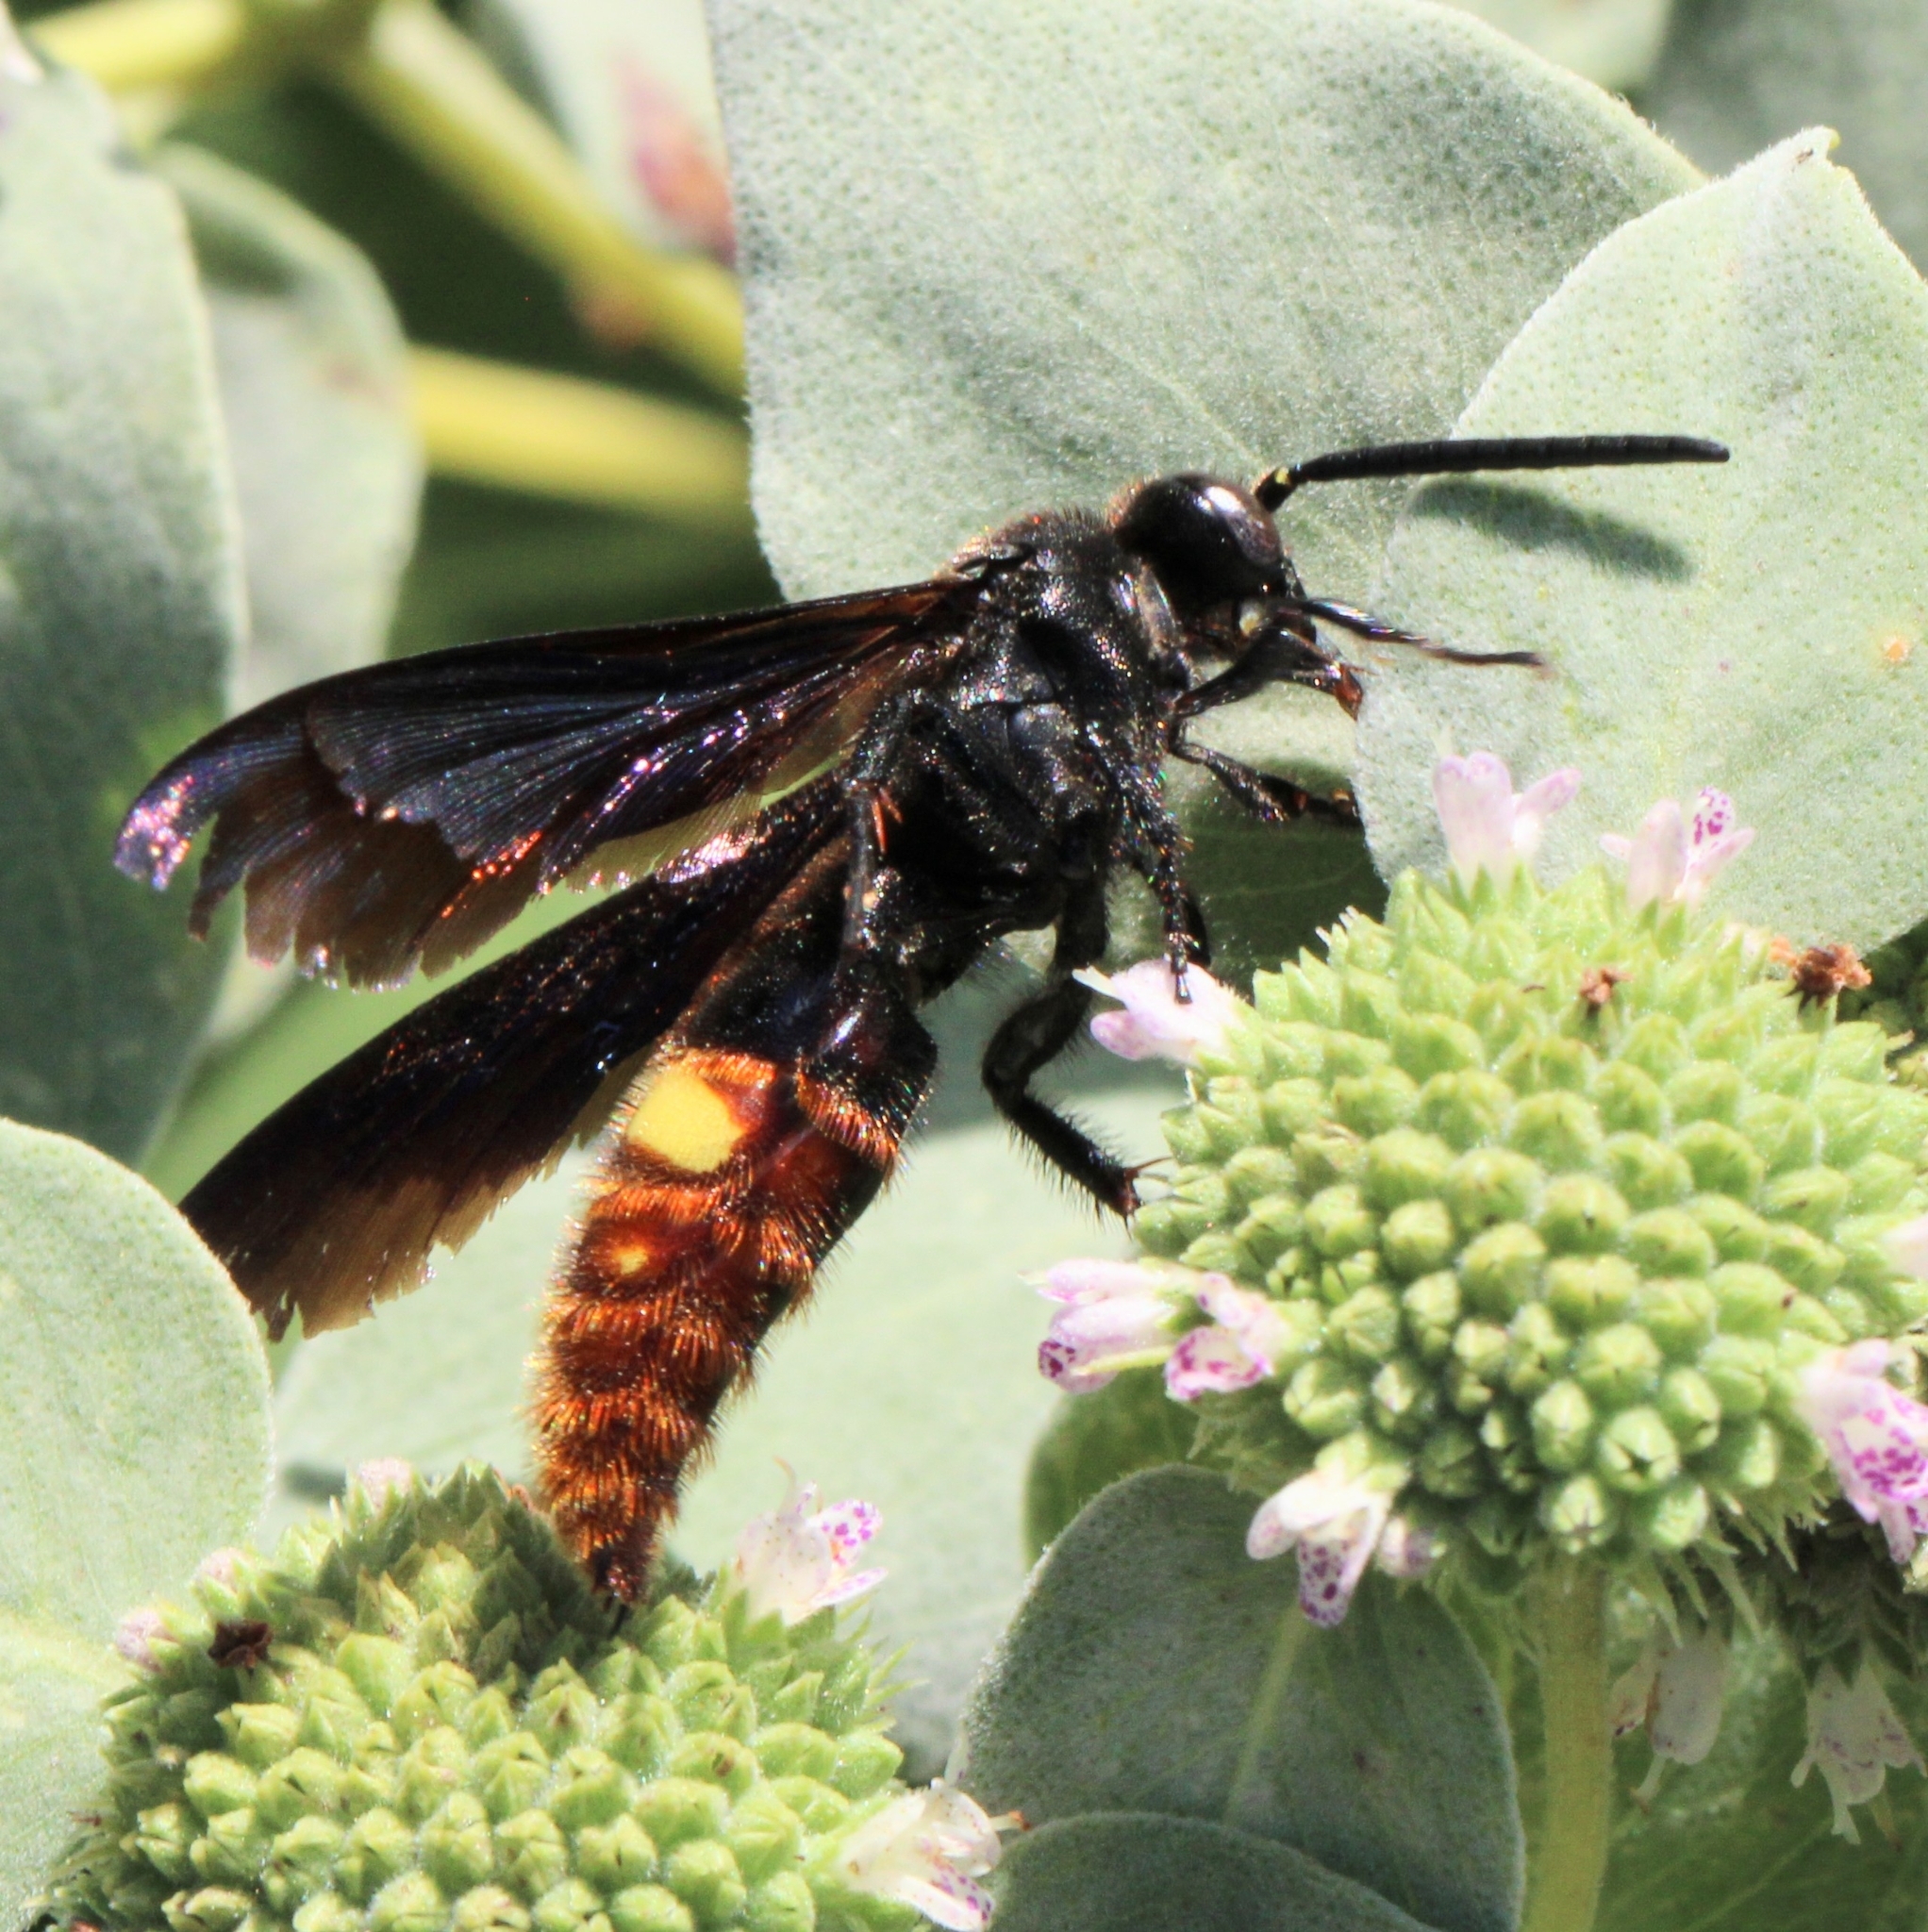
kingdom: Animalia
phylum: Arthropoda
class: Insecta
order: Hymenoptera
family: Scoliidae
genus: Scolia
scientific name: Scolia dubia
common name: Blue-winged scoliid wasp
